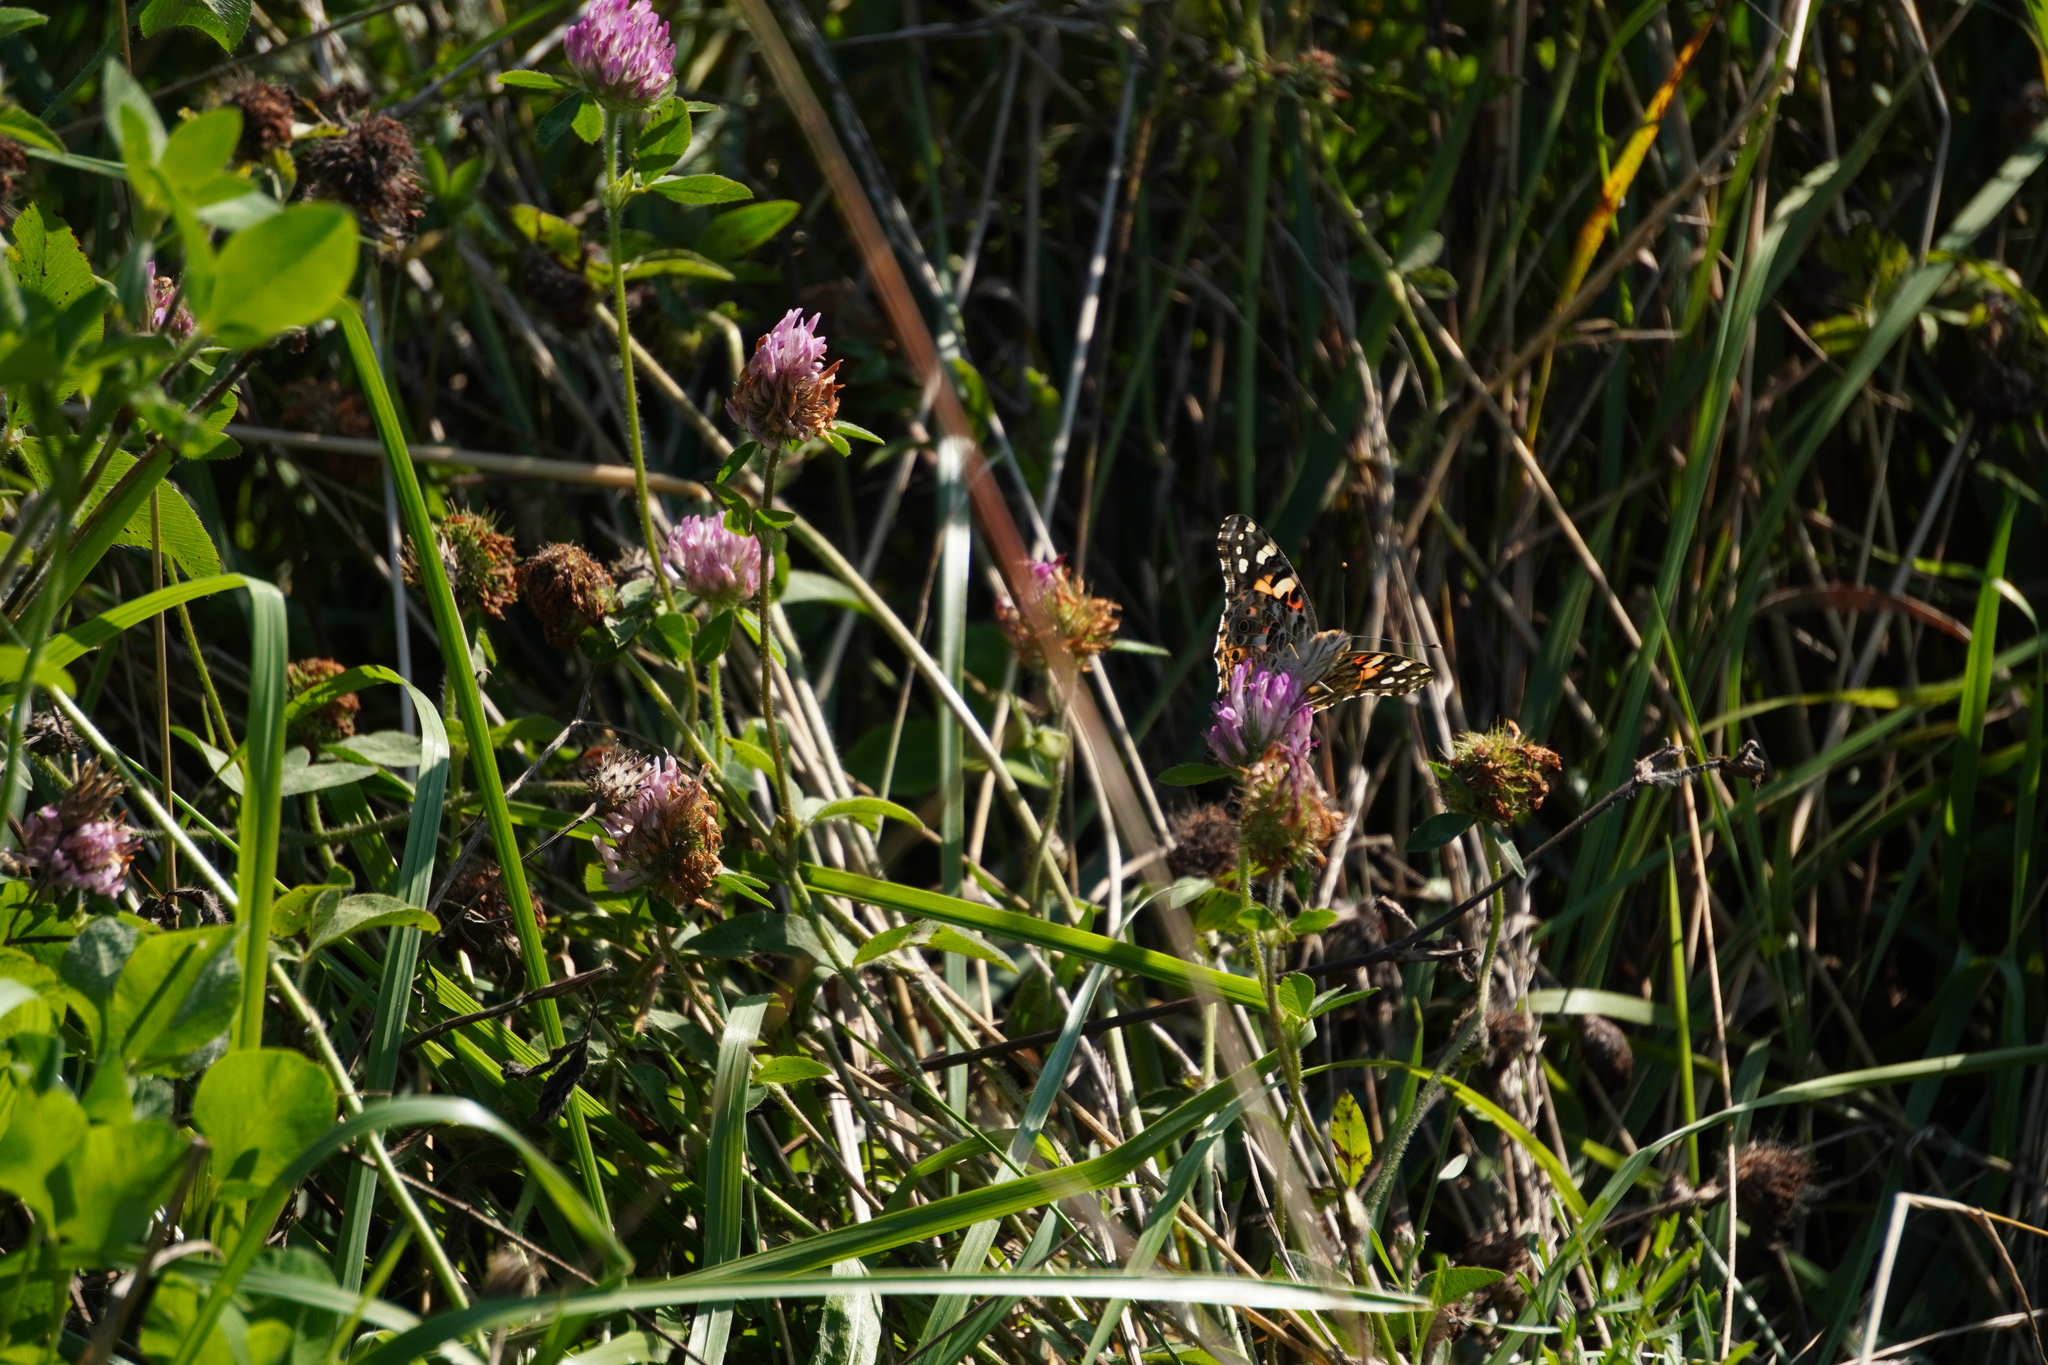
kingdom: Animalia
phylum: Arthropoda
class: Insecta
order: Lepidoptera
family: Nymphalidae
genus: Vanessa
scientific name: Vanessa cardui
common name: Painted lady
